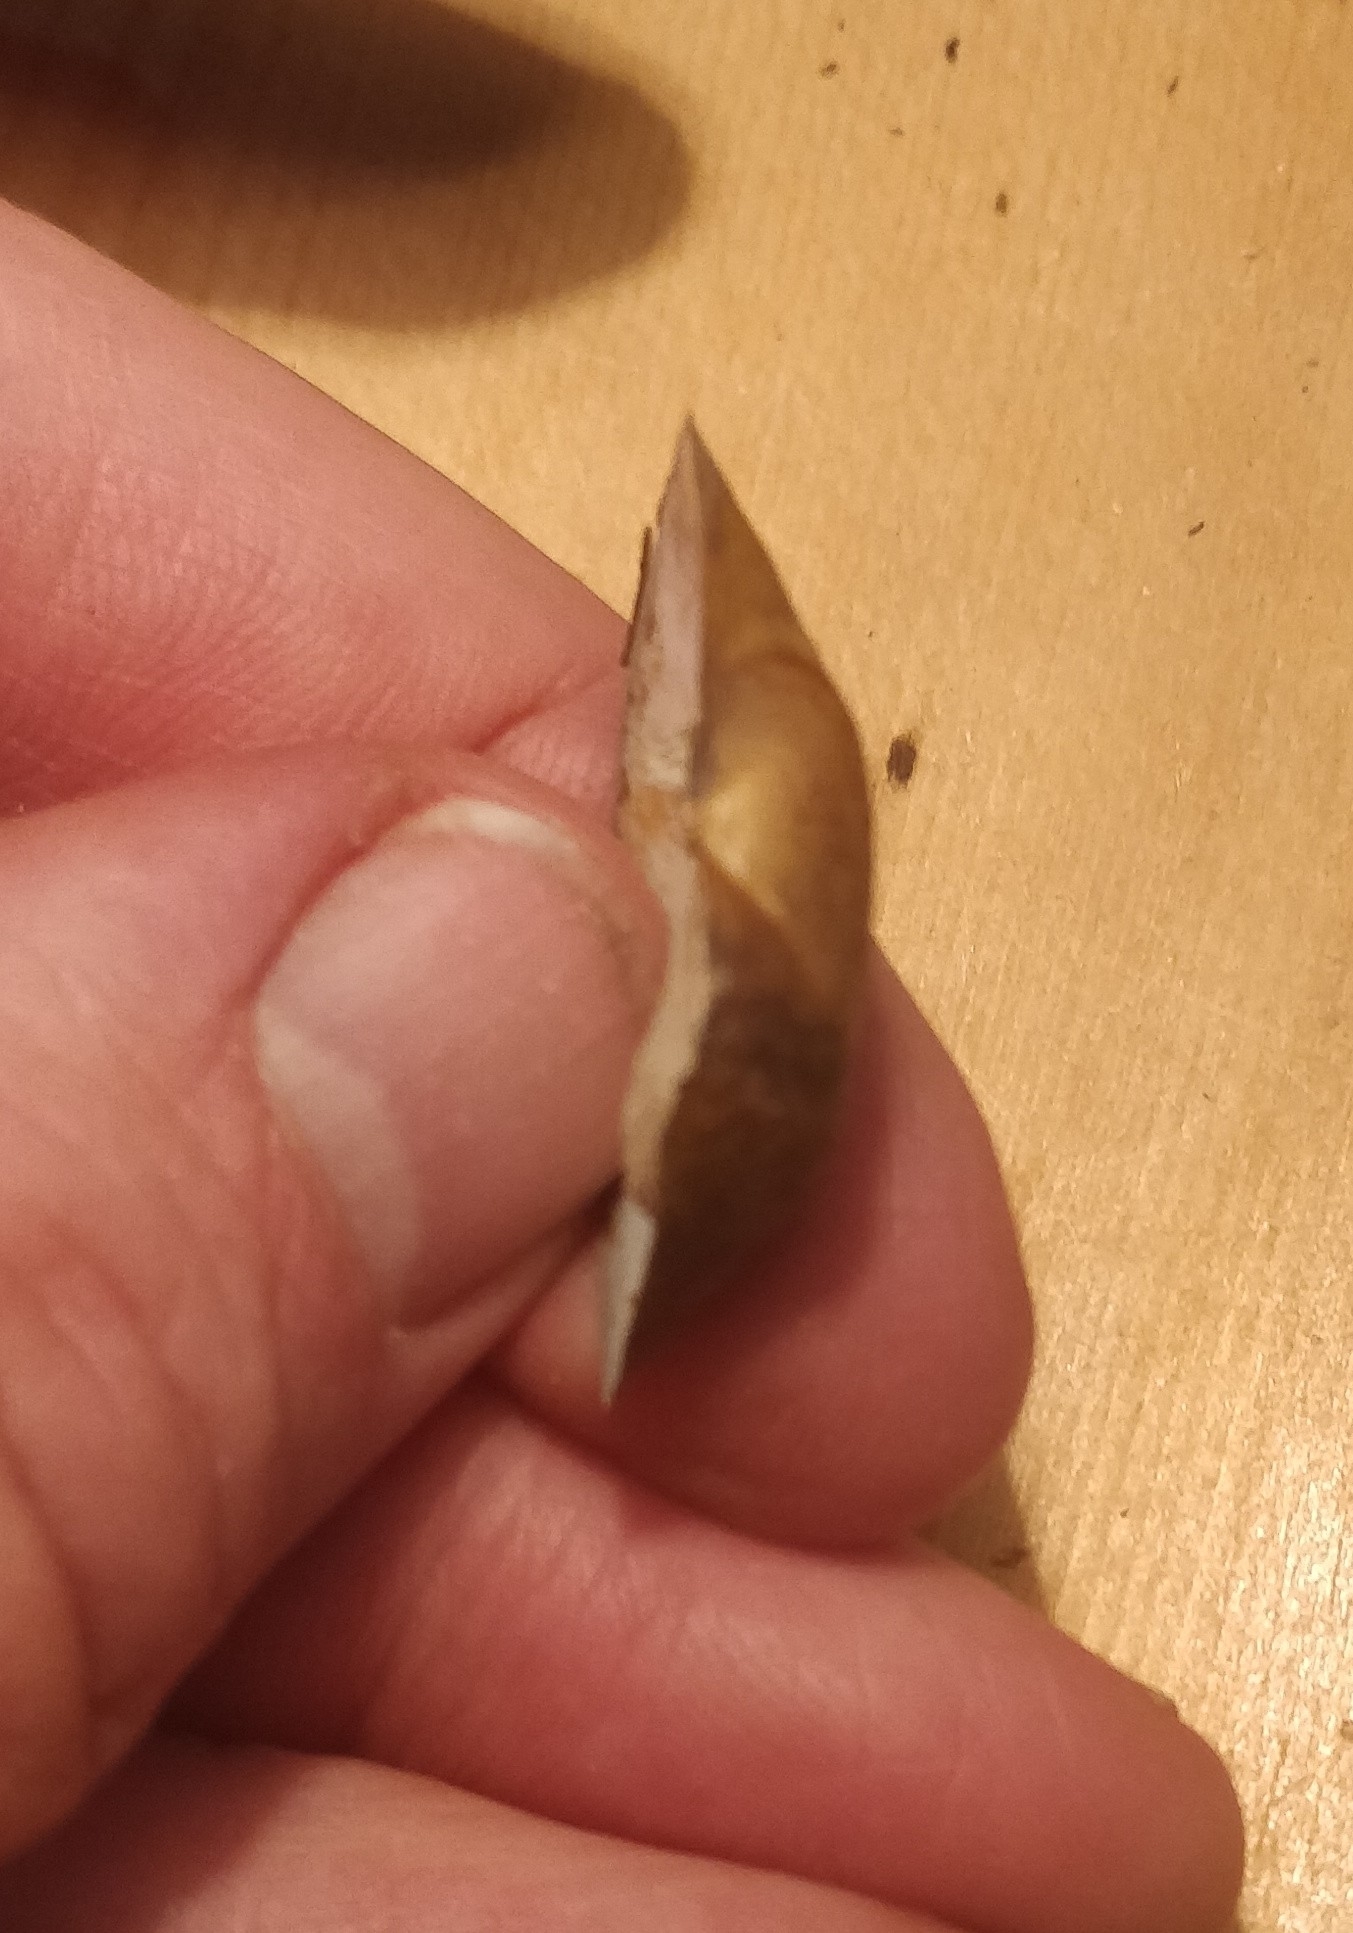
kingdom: Animalia
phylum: Mollusca
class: Bivalvia
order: Unionida
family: Unionidae
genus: Truncilla
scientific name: Truncilla truncata
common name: Deertoe
